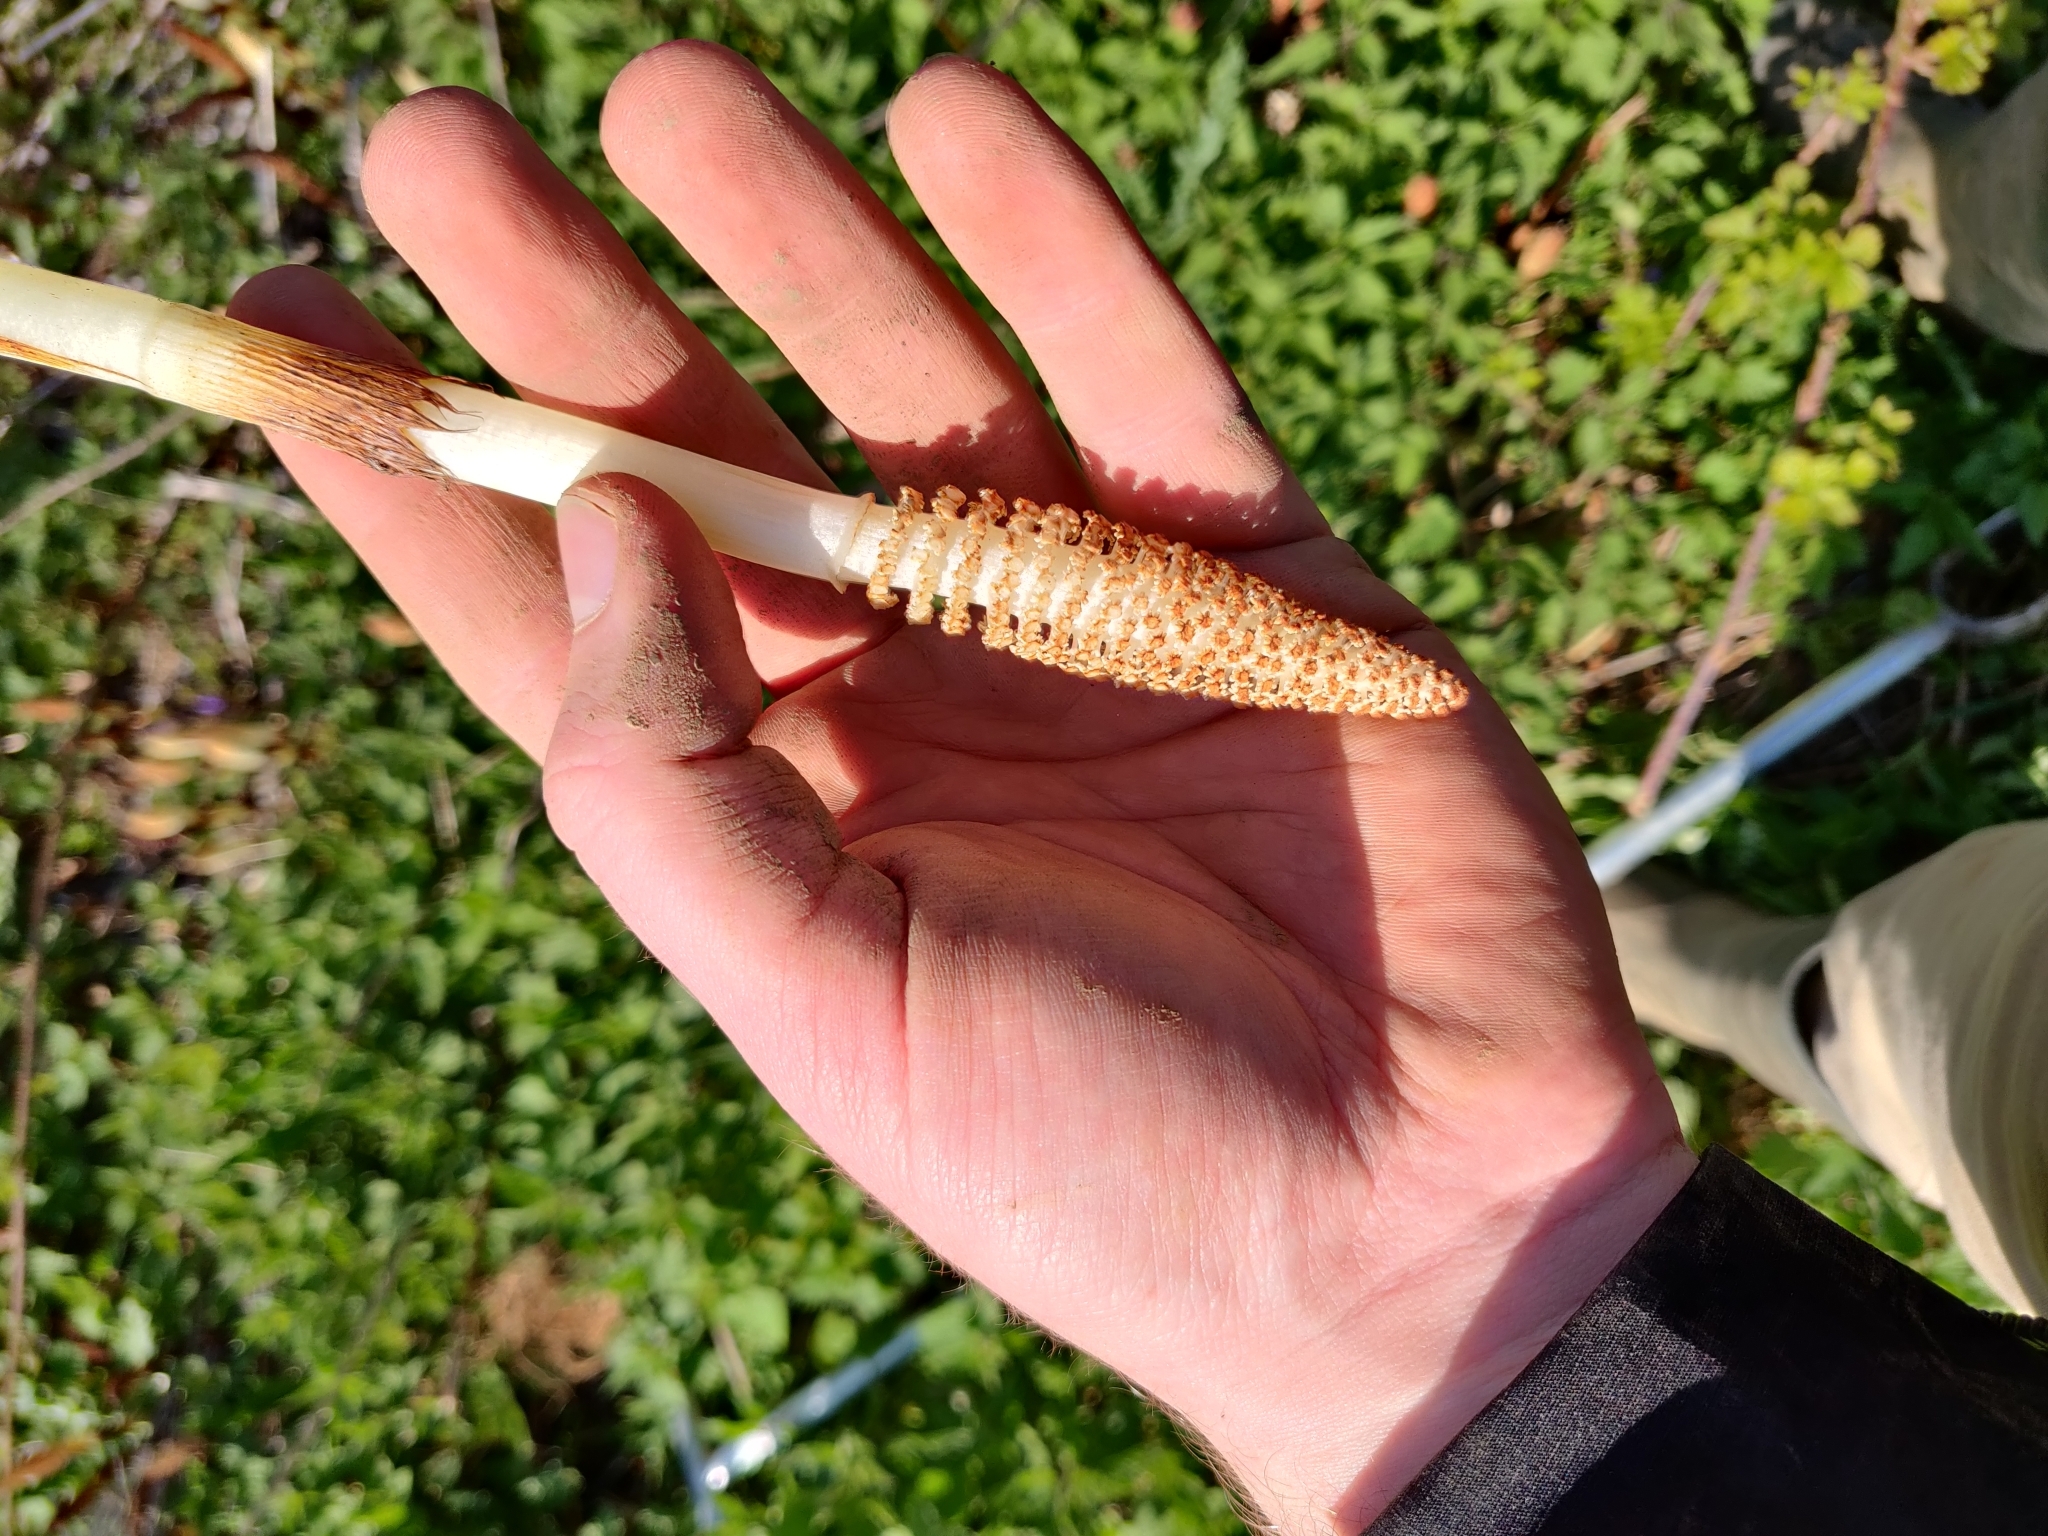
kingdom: Plantae
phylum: Tracheophyta
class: Polypodiopsida
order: Equisetales
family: Equisetaceae
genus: Equisetum
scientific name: Equisetum telmateia
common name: Great horsetail
